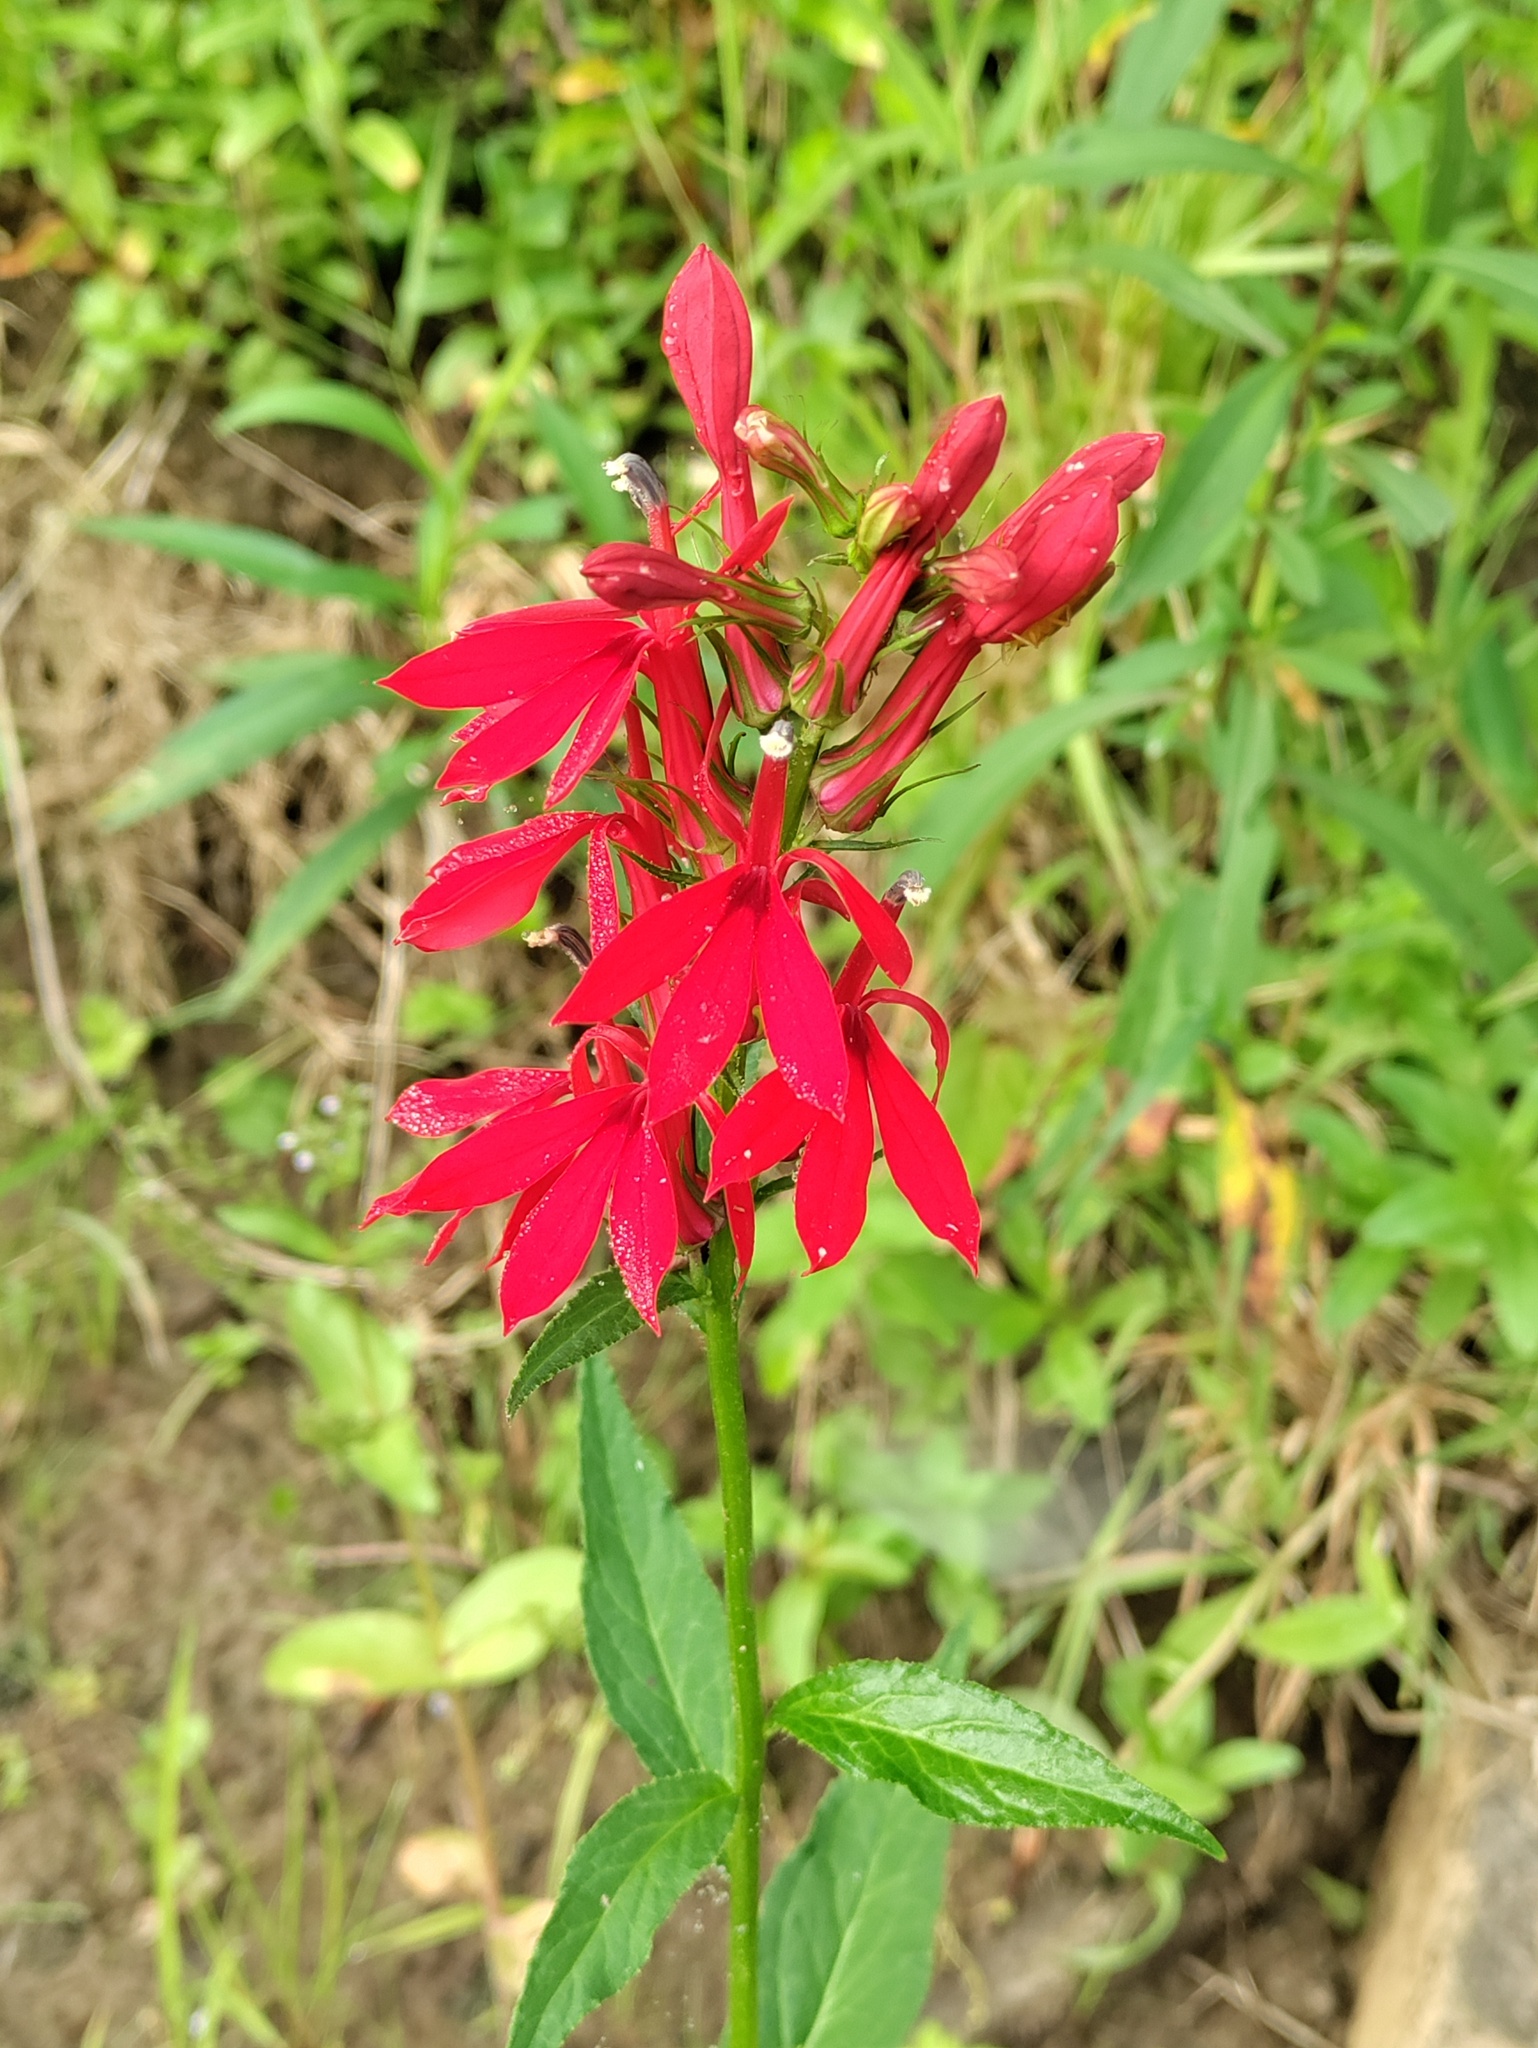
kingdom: Plantae
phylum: Tracheophyta
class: Magnoliopsida
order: Asterales
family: Campanulaceae
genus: Lobelia
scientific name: Lobelia cardinalis
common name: Cardinal flower
